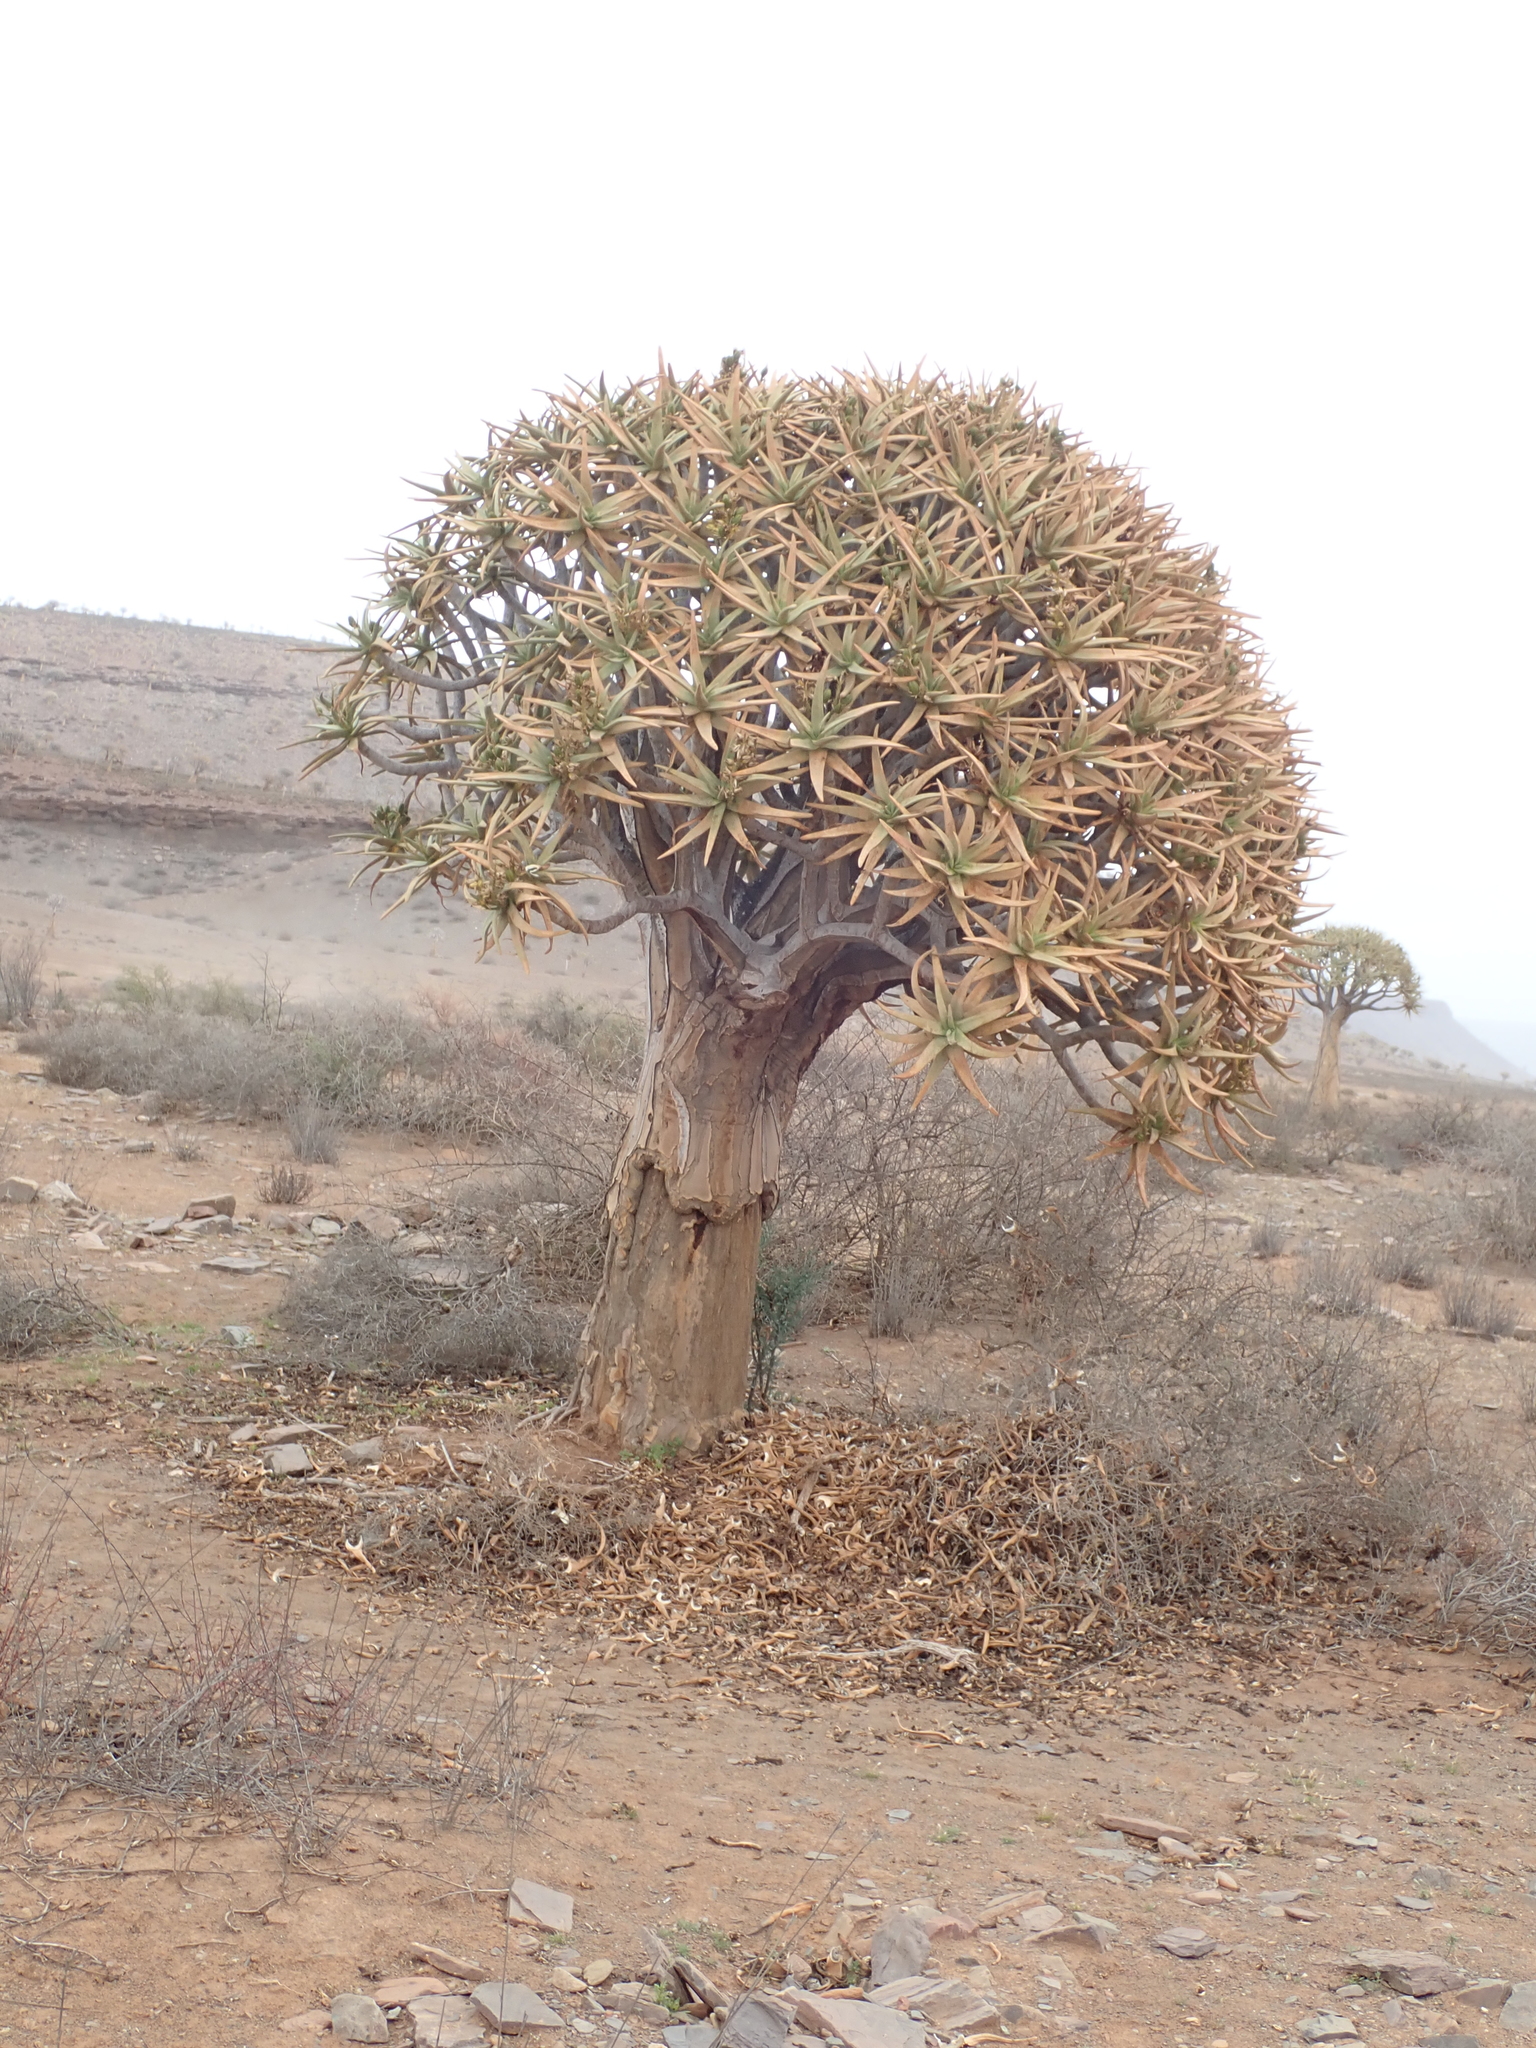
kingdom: Plantae
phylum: Tracheophyta
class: Liliopsida
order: Asparagales
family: Asphodelaceae
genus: Aloidendron
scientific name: Aloidendron dichotomum
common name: Quiver tree
